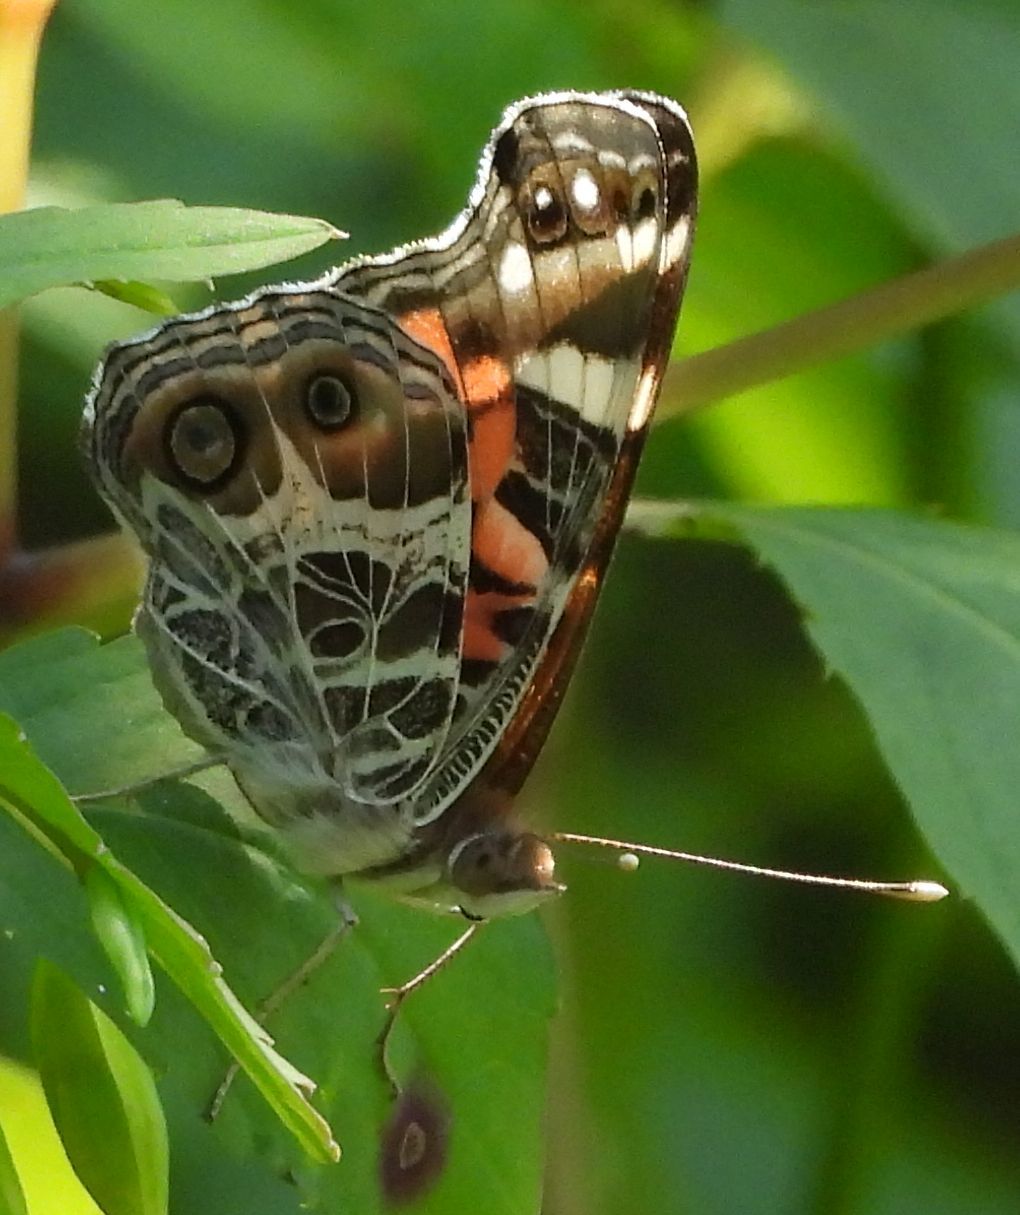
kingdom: Animalia
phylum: Arthropoda
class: Insecta
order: Lepidoptera
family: Nymphalidae
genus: Vanessa
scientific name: Vanessa virginiensis
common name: American lady
